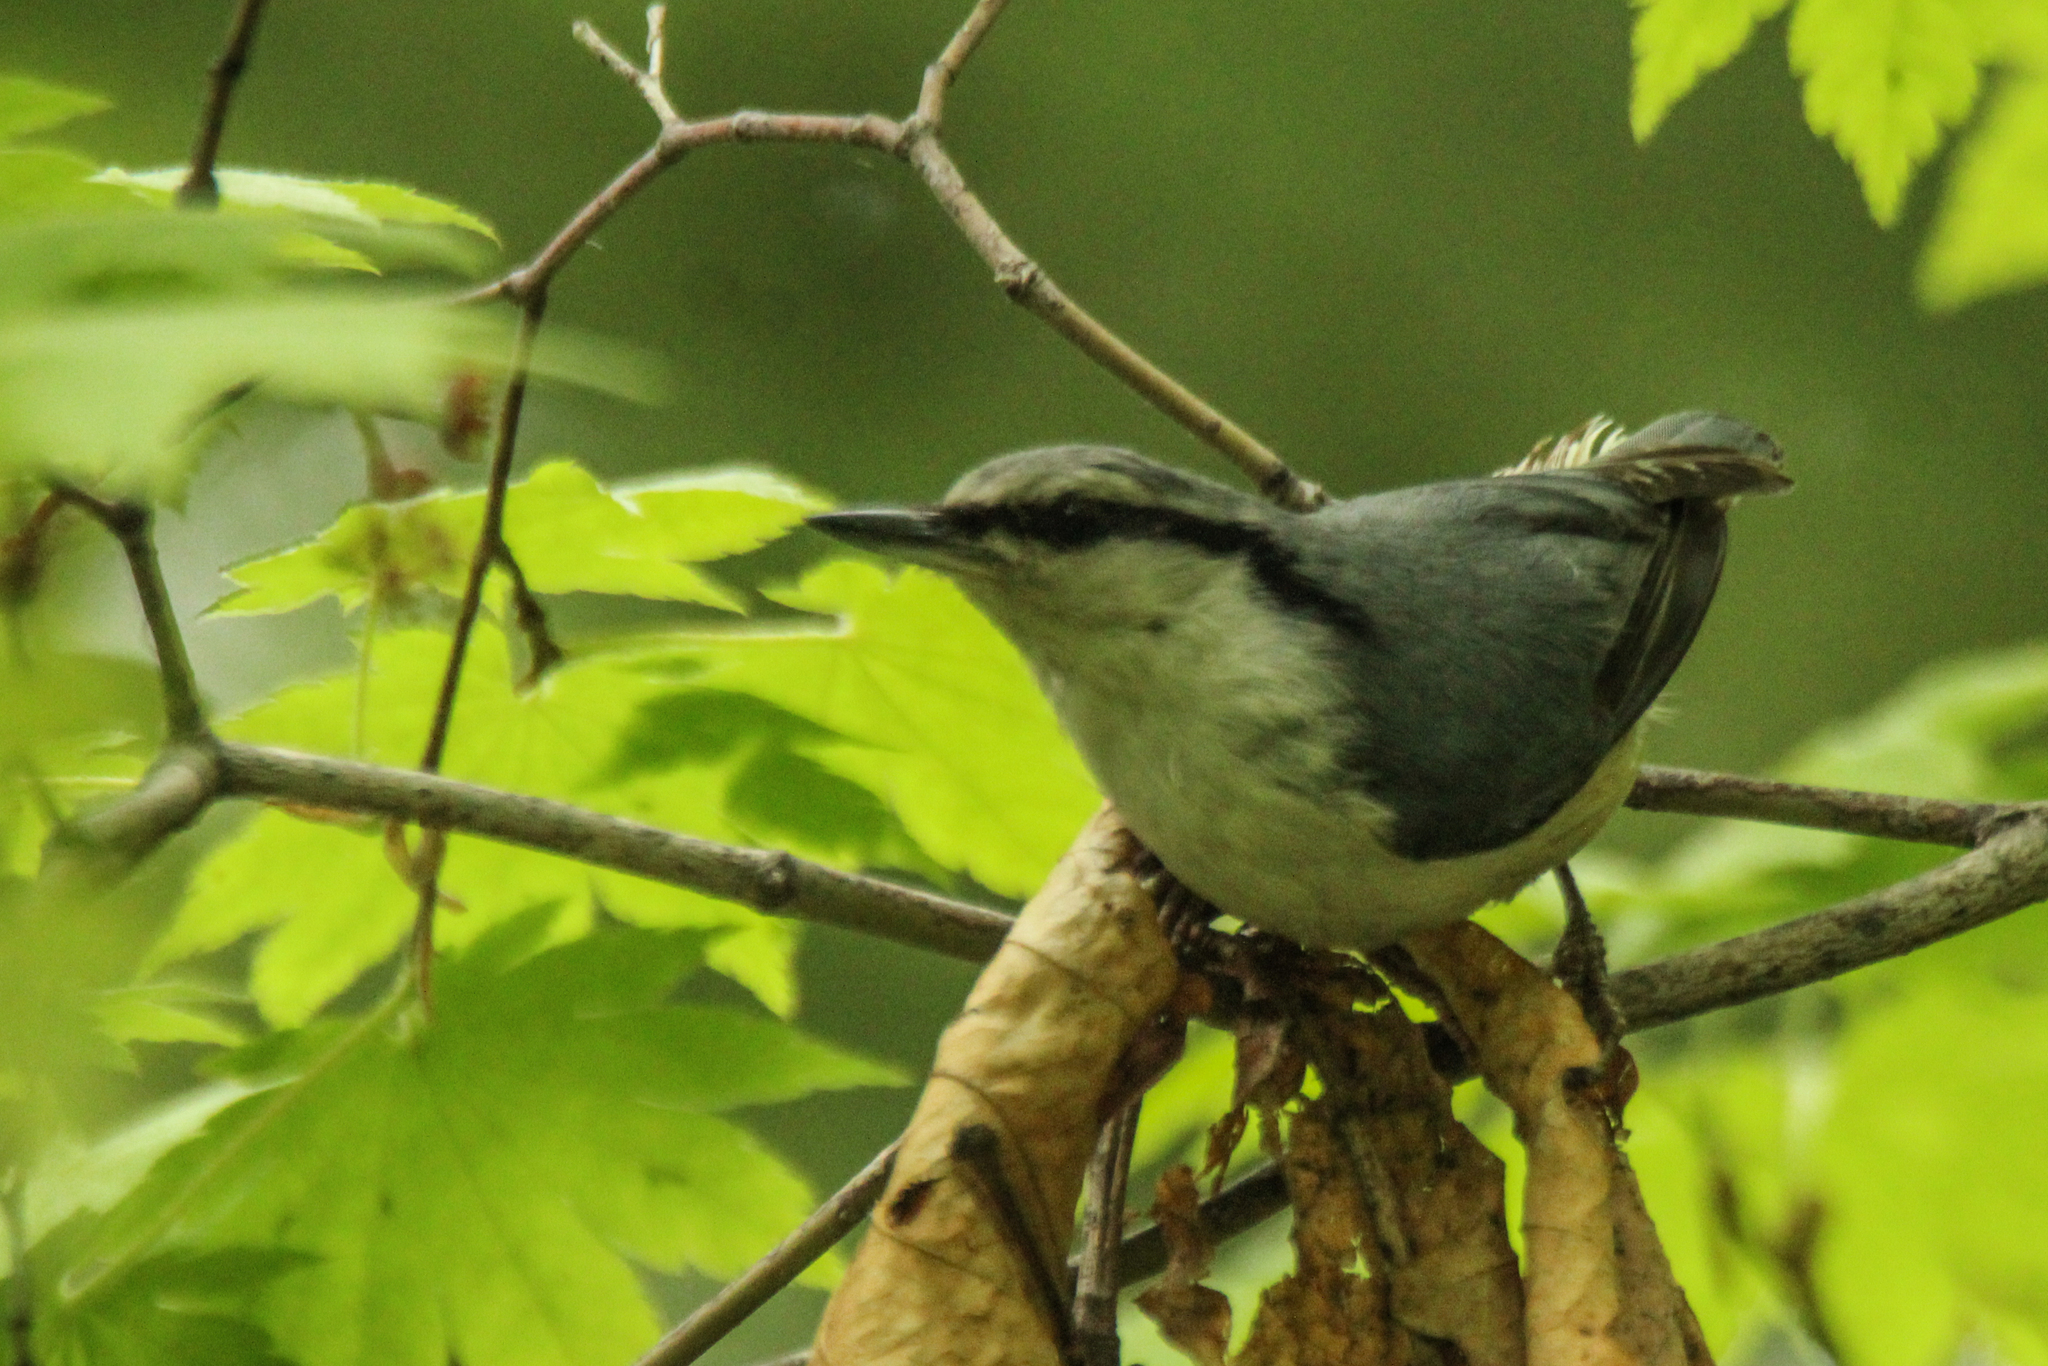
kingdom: Animalia
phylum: Chordata
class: Aves
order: Passeriformes
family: Sittidae
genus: Sitta
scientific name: Sitta europaea
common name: Eurasian nuthatch
